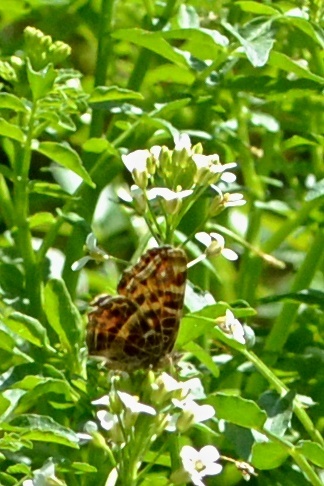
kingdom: Animalia
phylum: Arthropoda
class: Insecta
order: Lepidoptera
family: Nymphalidae
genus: Araschnia
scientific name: Araschnia levana
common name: Map butterfly
